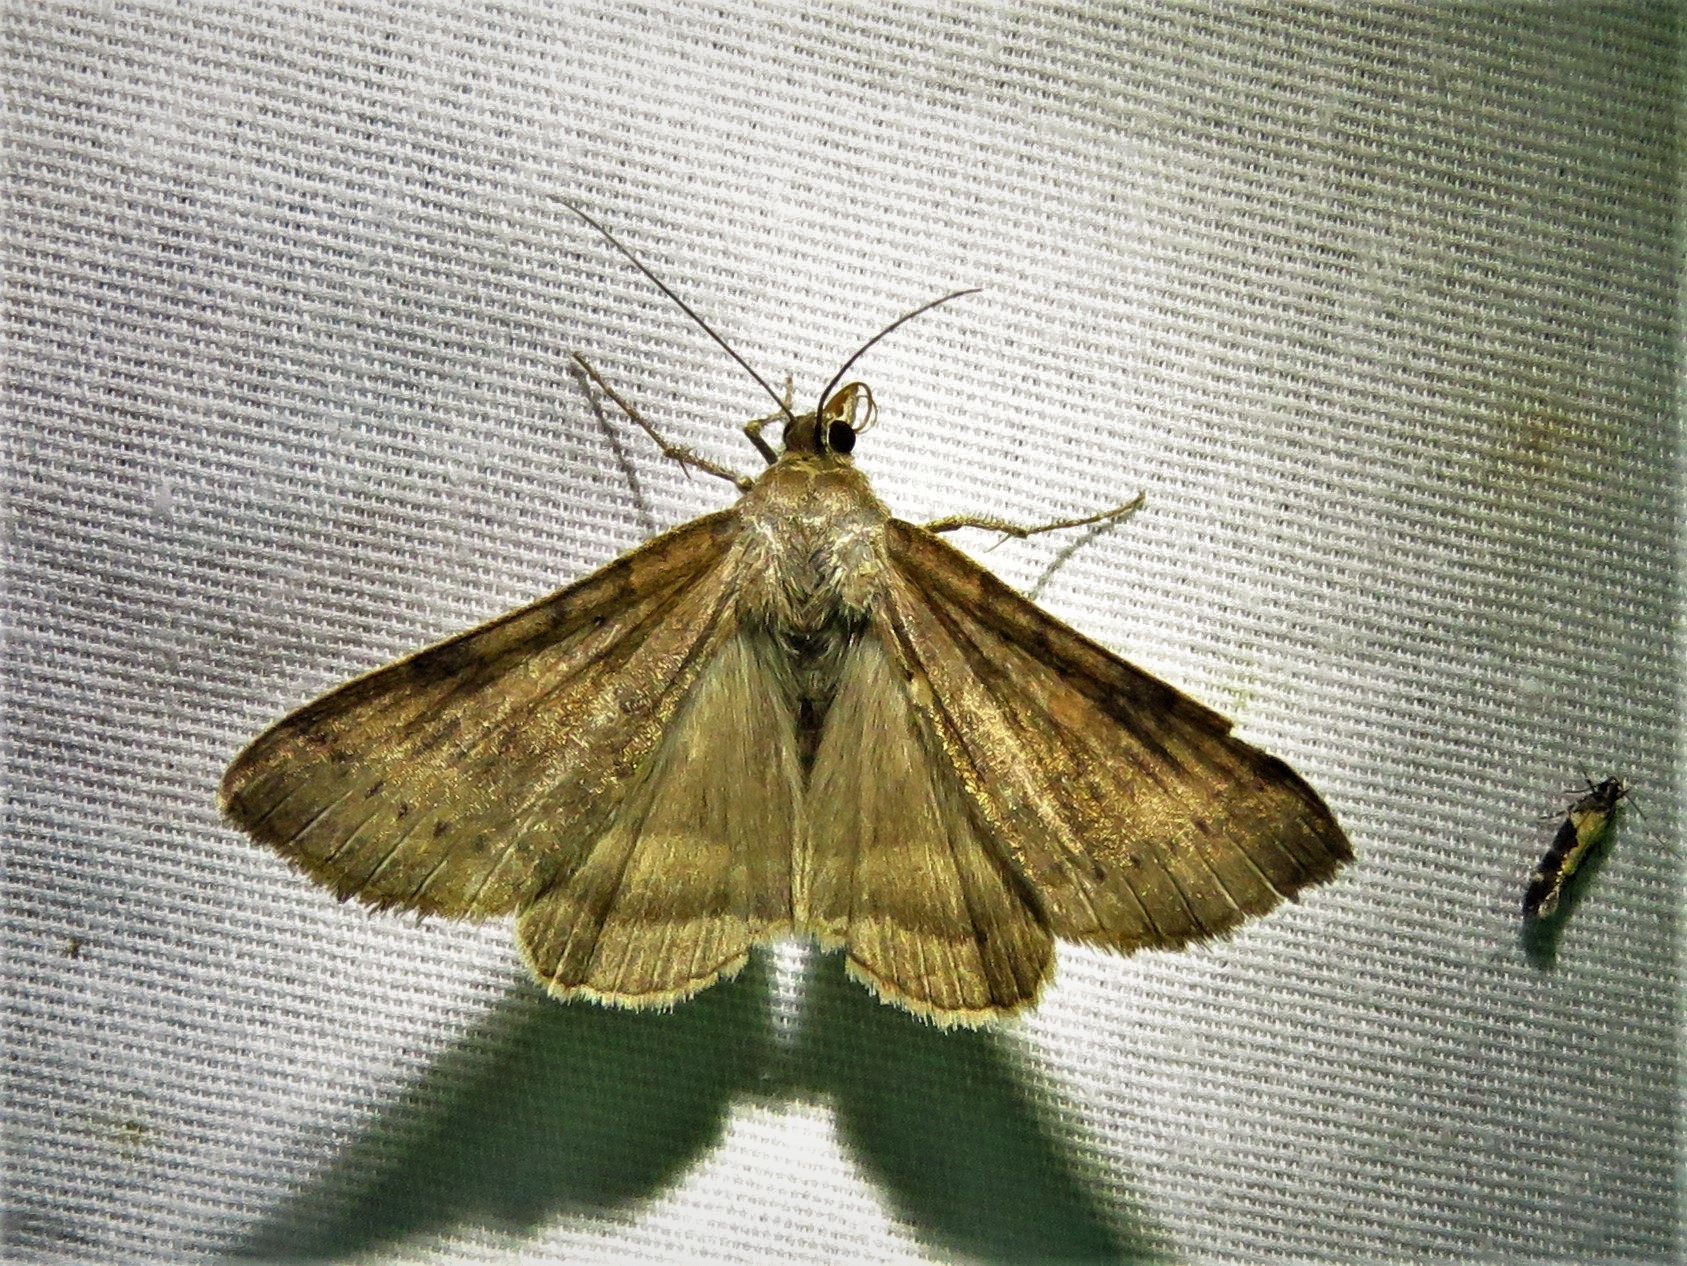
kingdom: Animalia
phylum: Arthropoda
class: Insecta
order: Lepidoptera
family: Erebidae
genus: Caenurgina
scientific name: Caenurgina erechtea
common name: Forage looper moth
